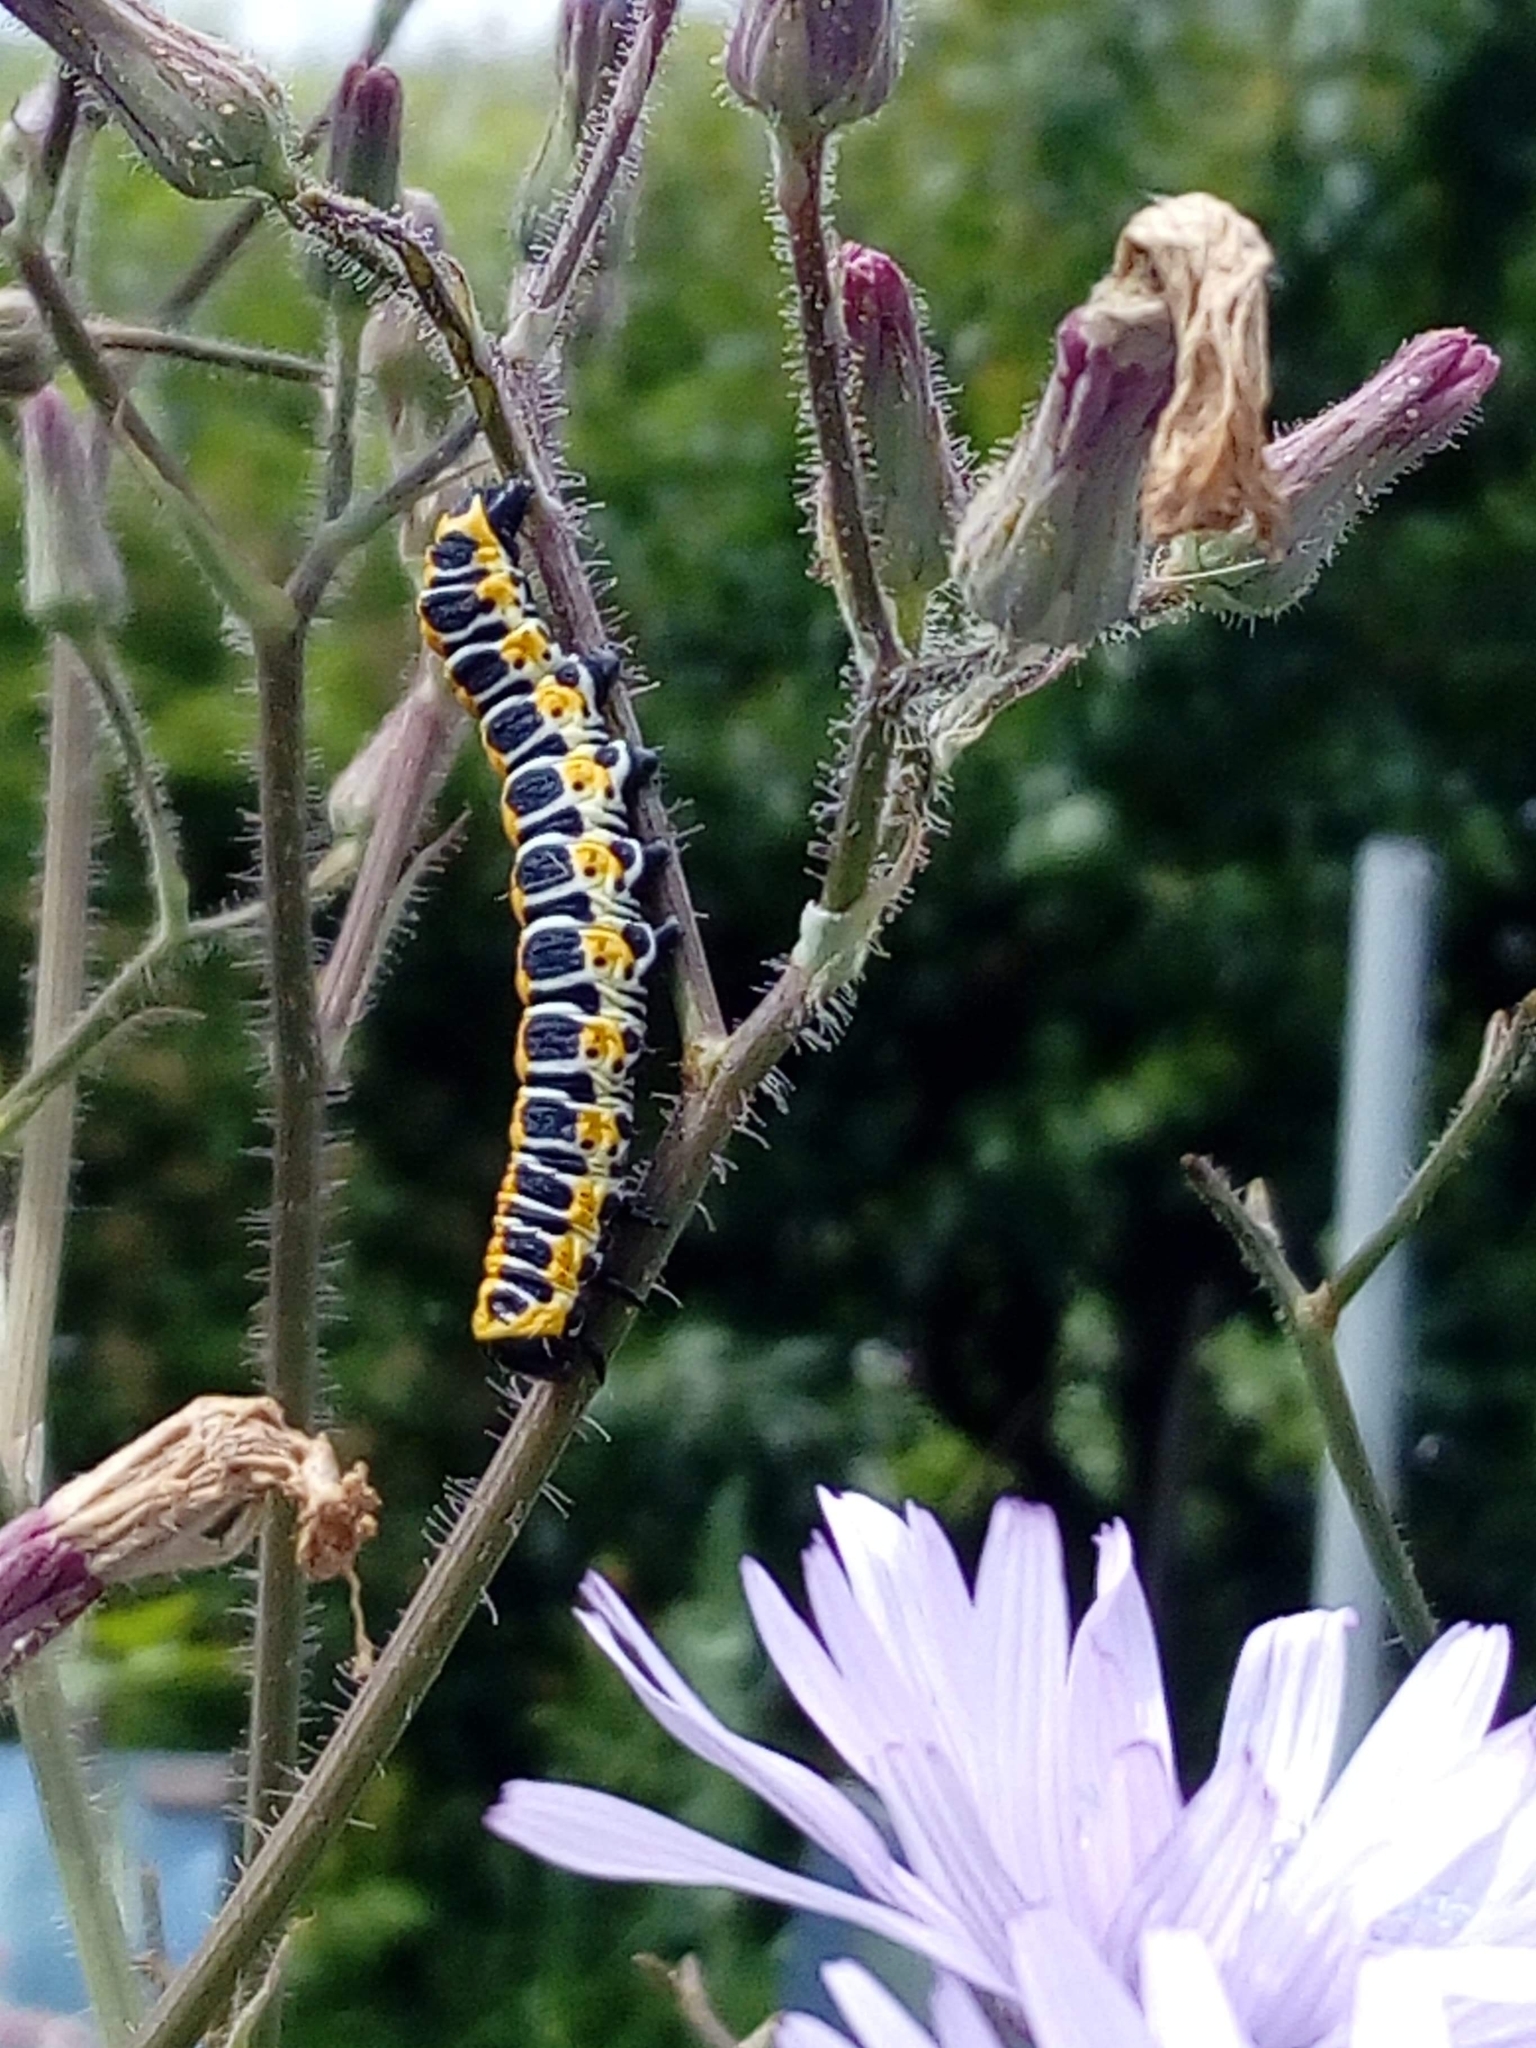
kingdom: Animalia
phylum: Arthropoda
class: Insecta
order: Lepidoptera
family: Noctuidae
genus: Cucullia
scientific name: Cucullia lactucae
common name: Lettuce shark
